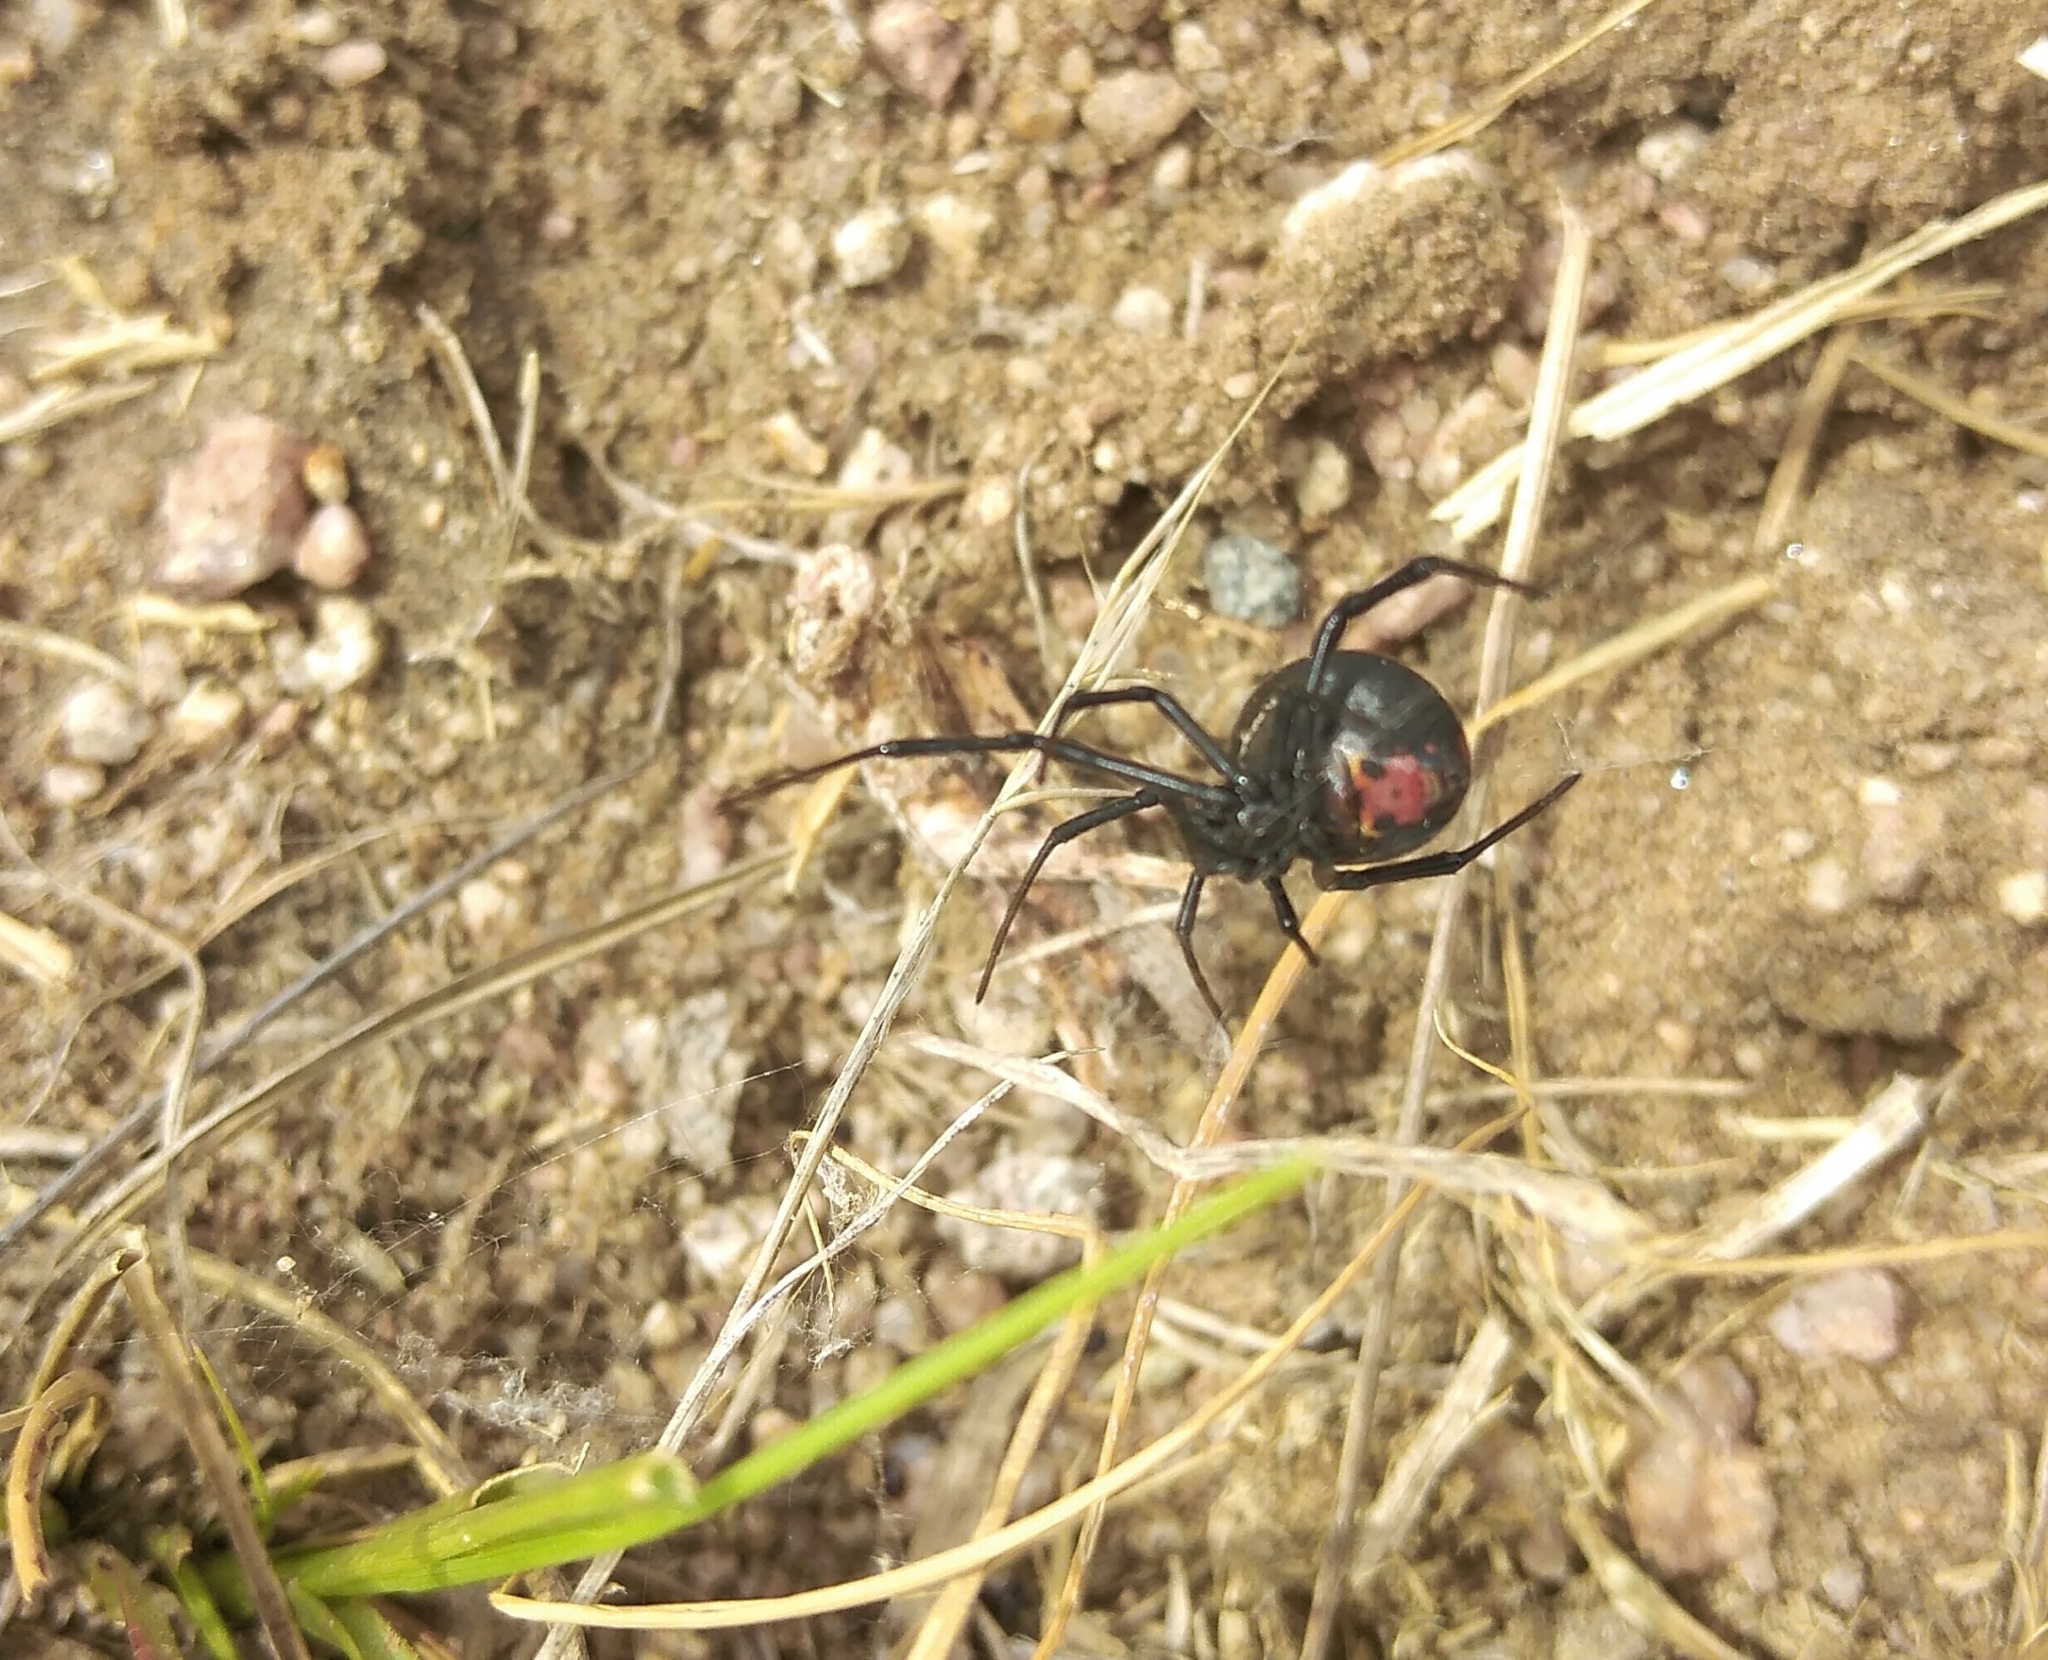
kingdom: Animalia
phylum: Arthropoda
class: Arachnida
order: Araneae
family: Theridiidae
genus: Latrodectus
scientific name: Latrodectus mirabilis
